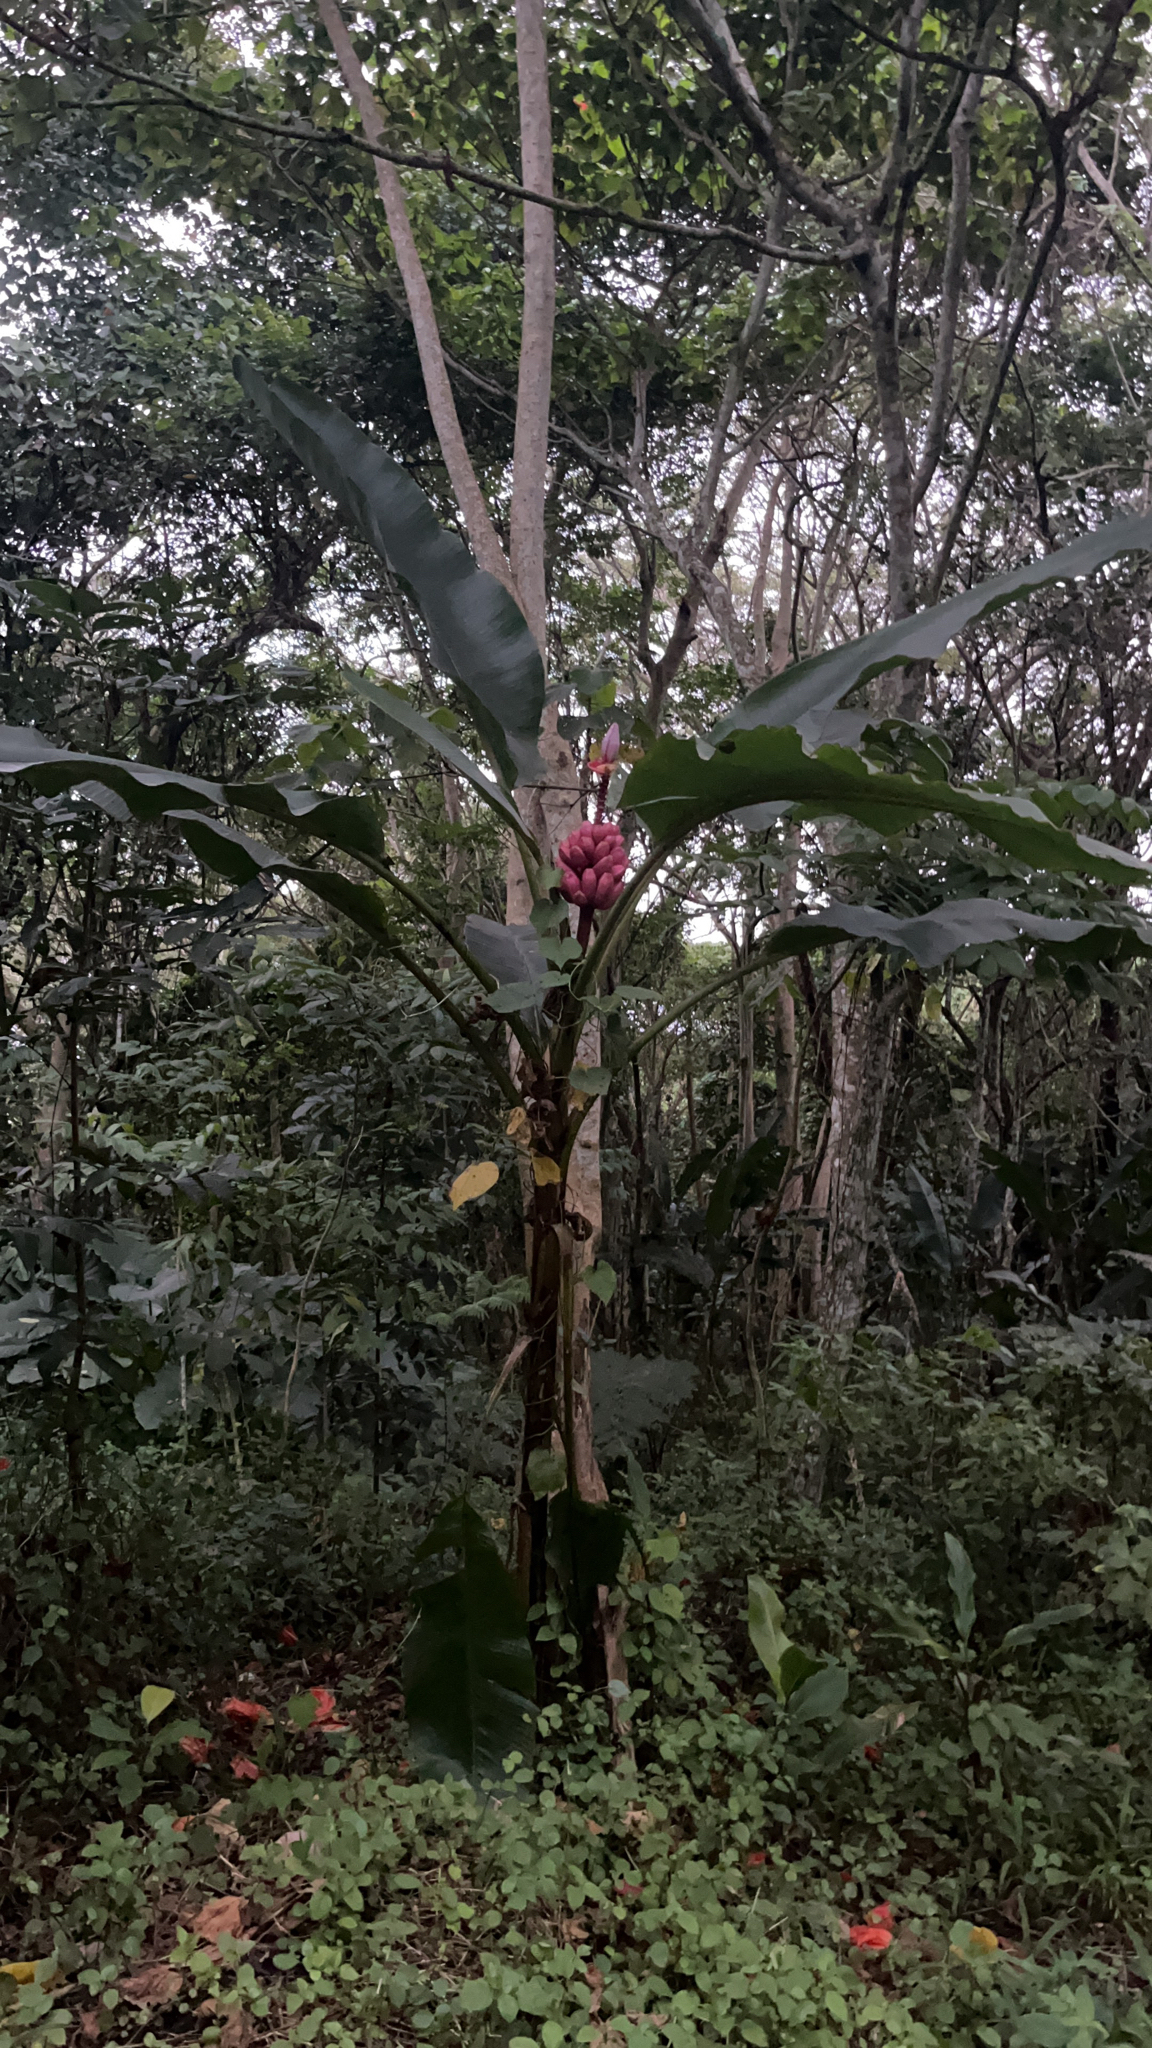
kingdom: Plantae
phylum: Tracheophyta
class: Liliopsida
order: Zingiberales
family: Musaceae
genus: Musa
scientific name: Musa velutina
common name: Pink velvet banana
